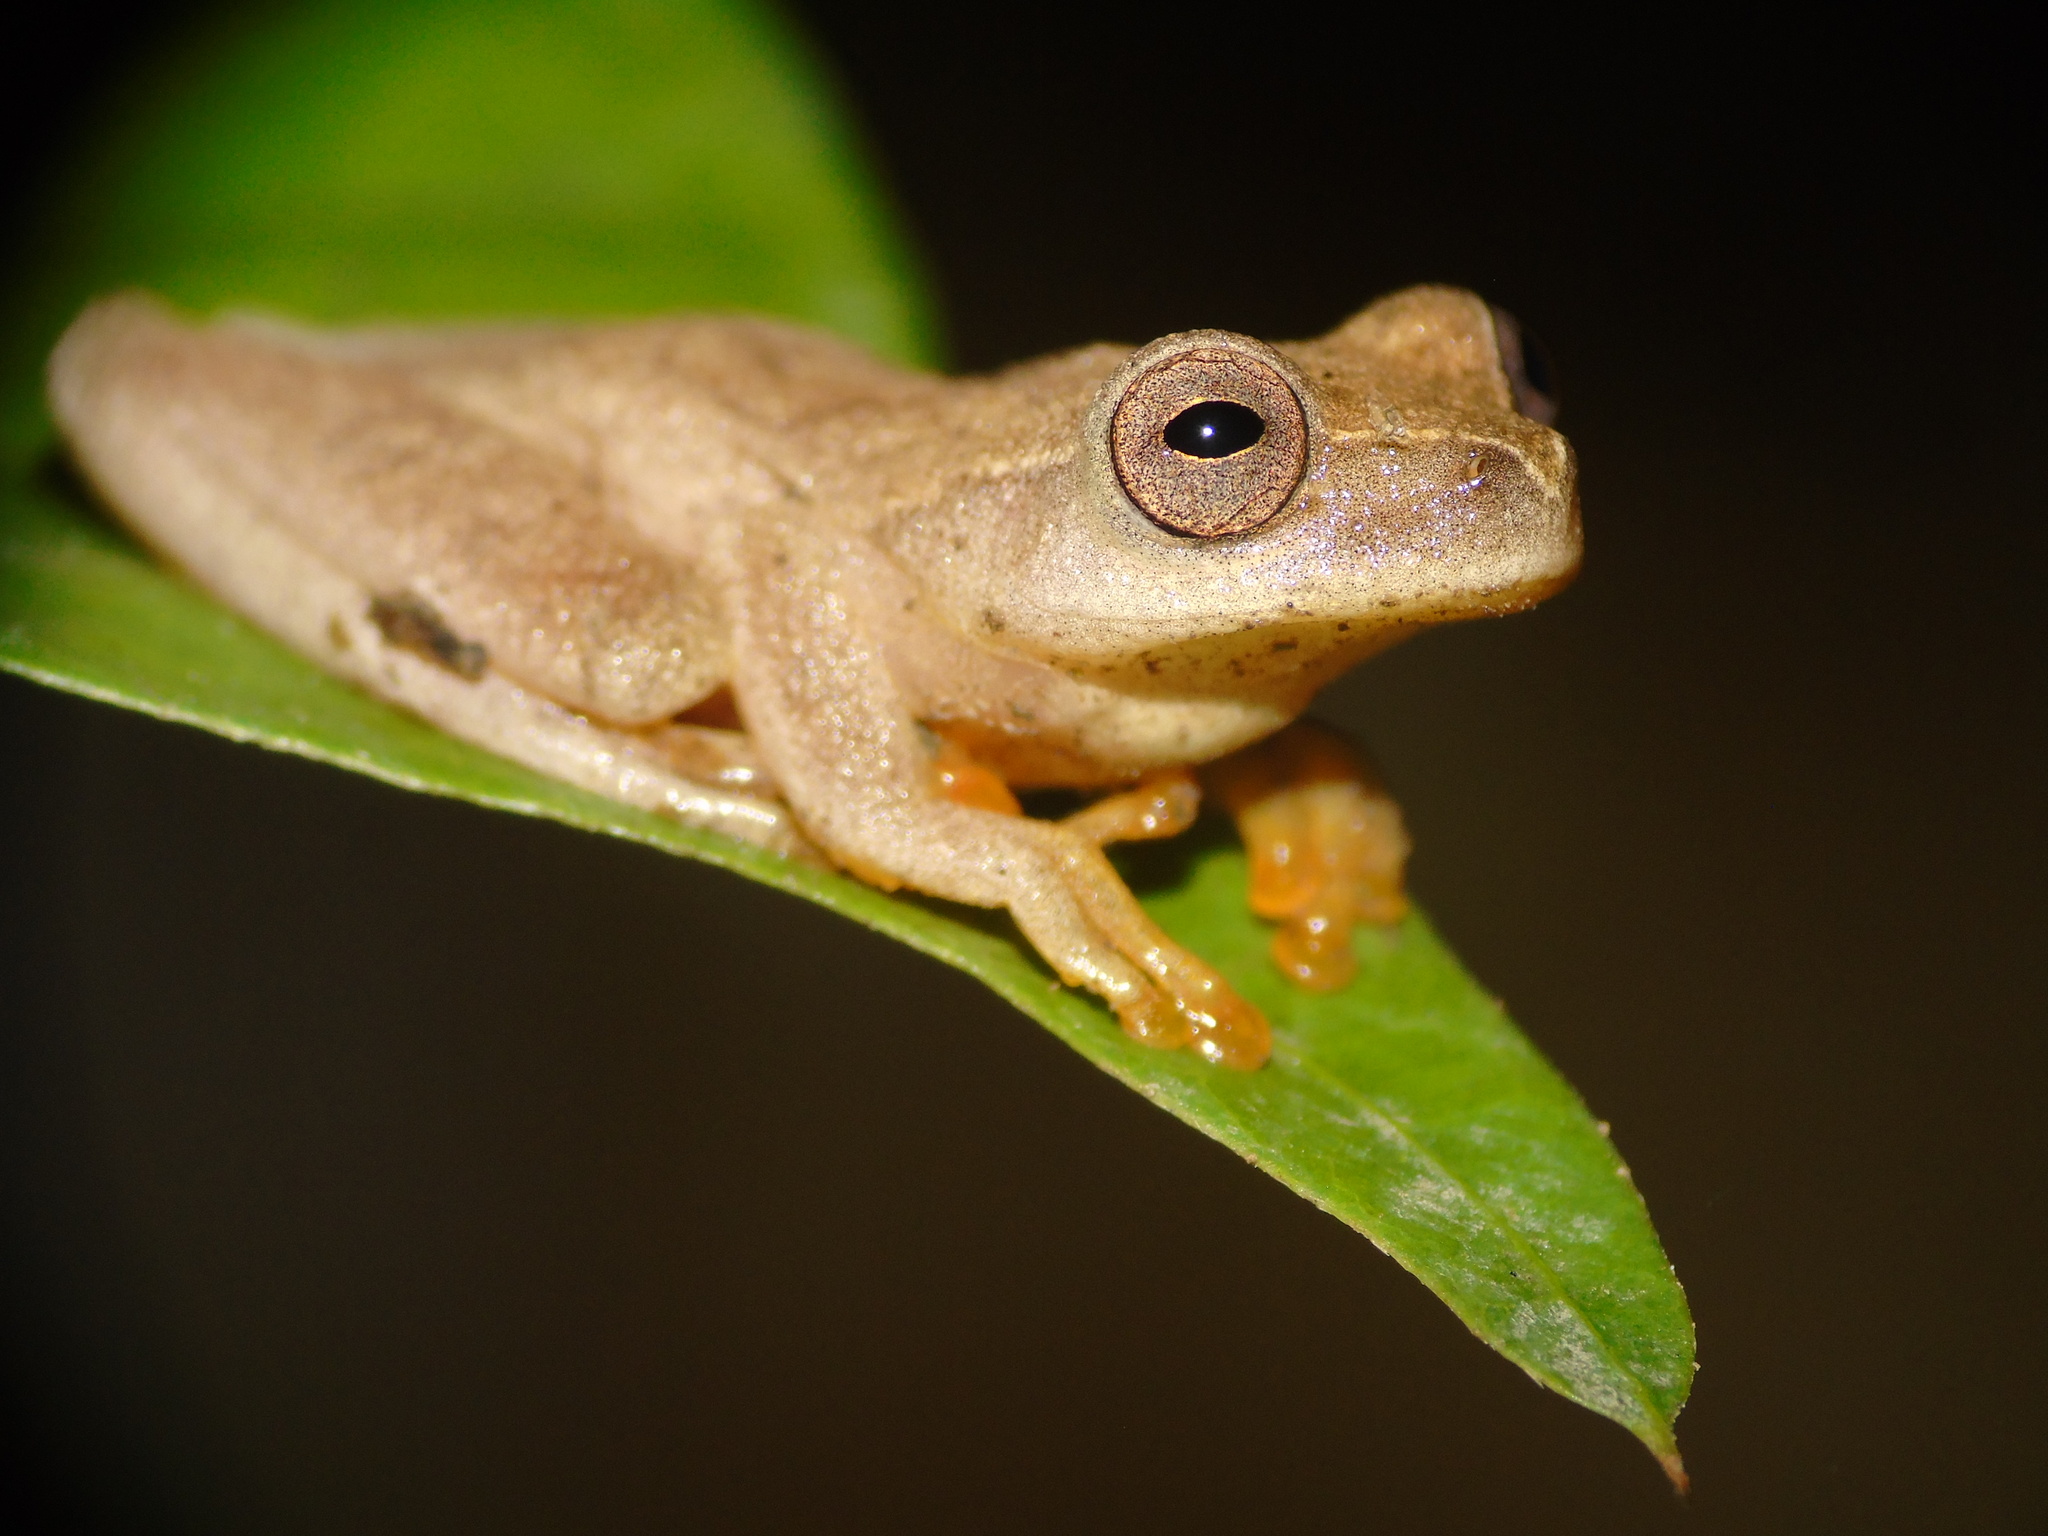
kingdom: Animalia
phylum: Chordata
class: Amphibia
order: Anura
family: Hylidae
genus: Dendropsophus
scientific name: Dendropsophus phlebodes
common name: San carlos treefrog
